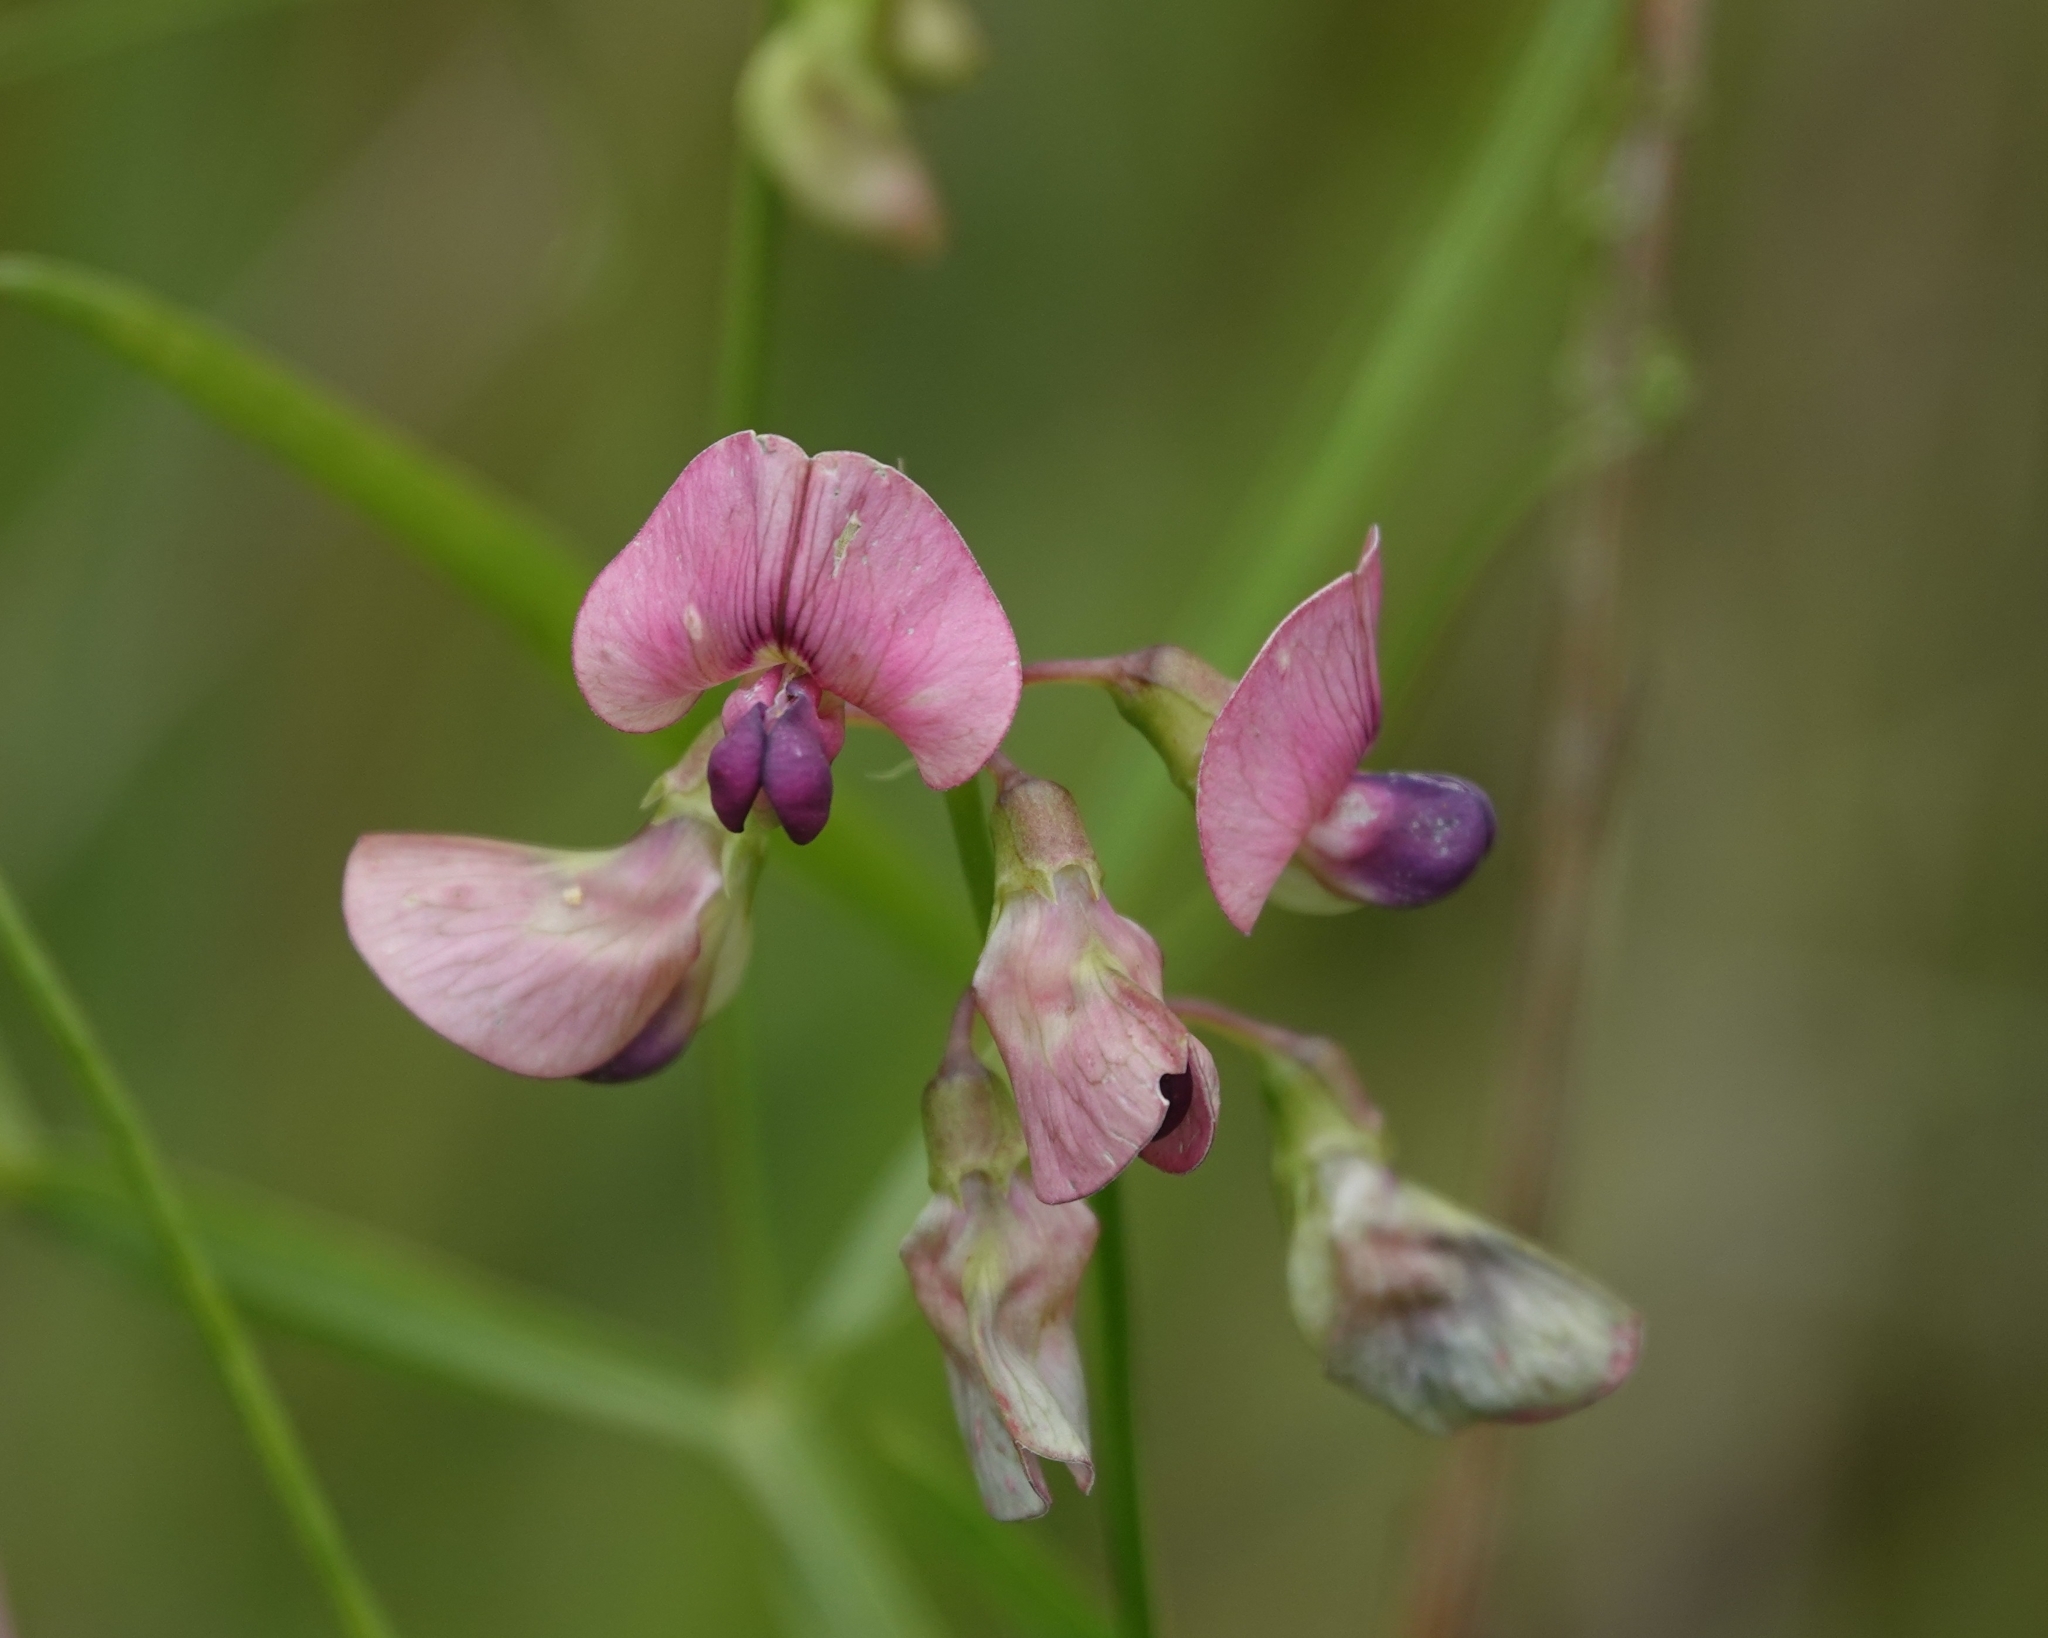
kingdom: Plantae
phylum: Tracheophyta
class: Magnoliopsida
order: Fabales
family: Fabaceae
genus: Lathyrus
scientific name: Lathyrus sylvestris
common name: Flat pea
